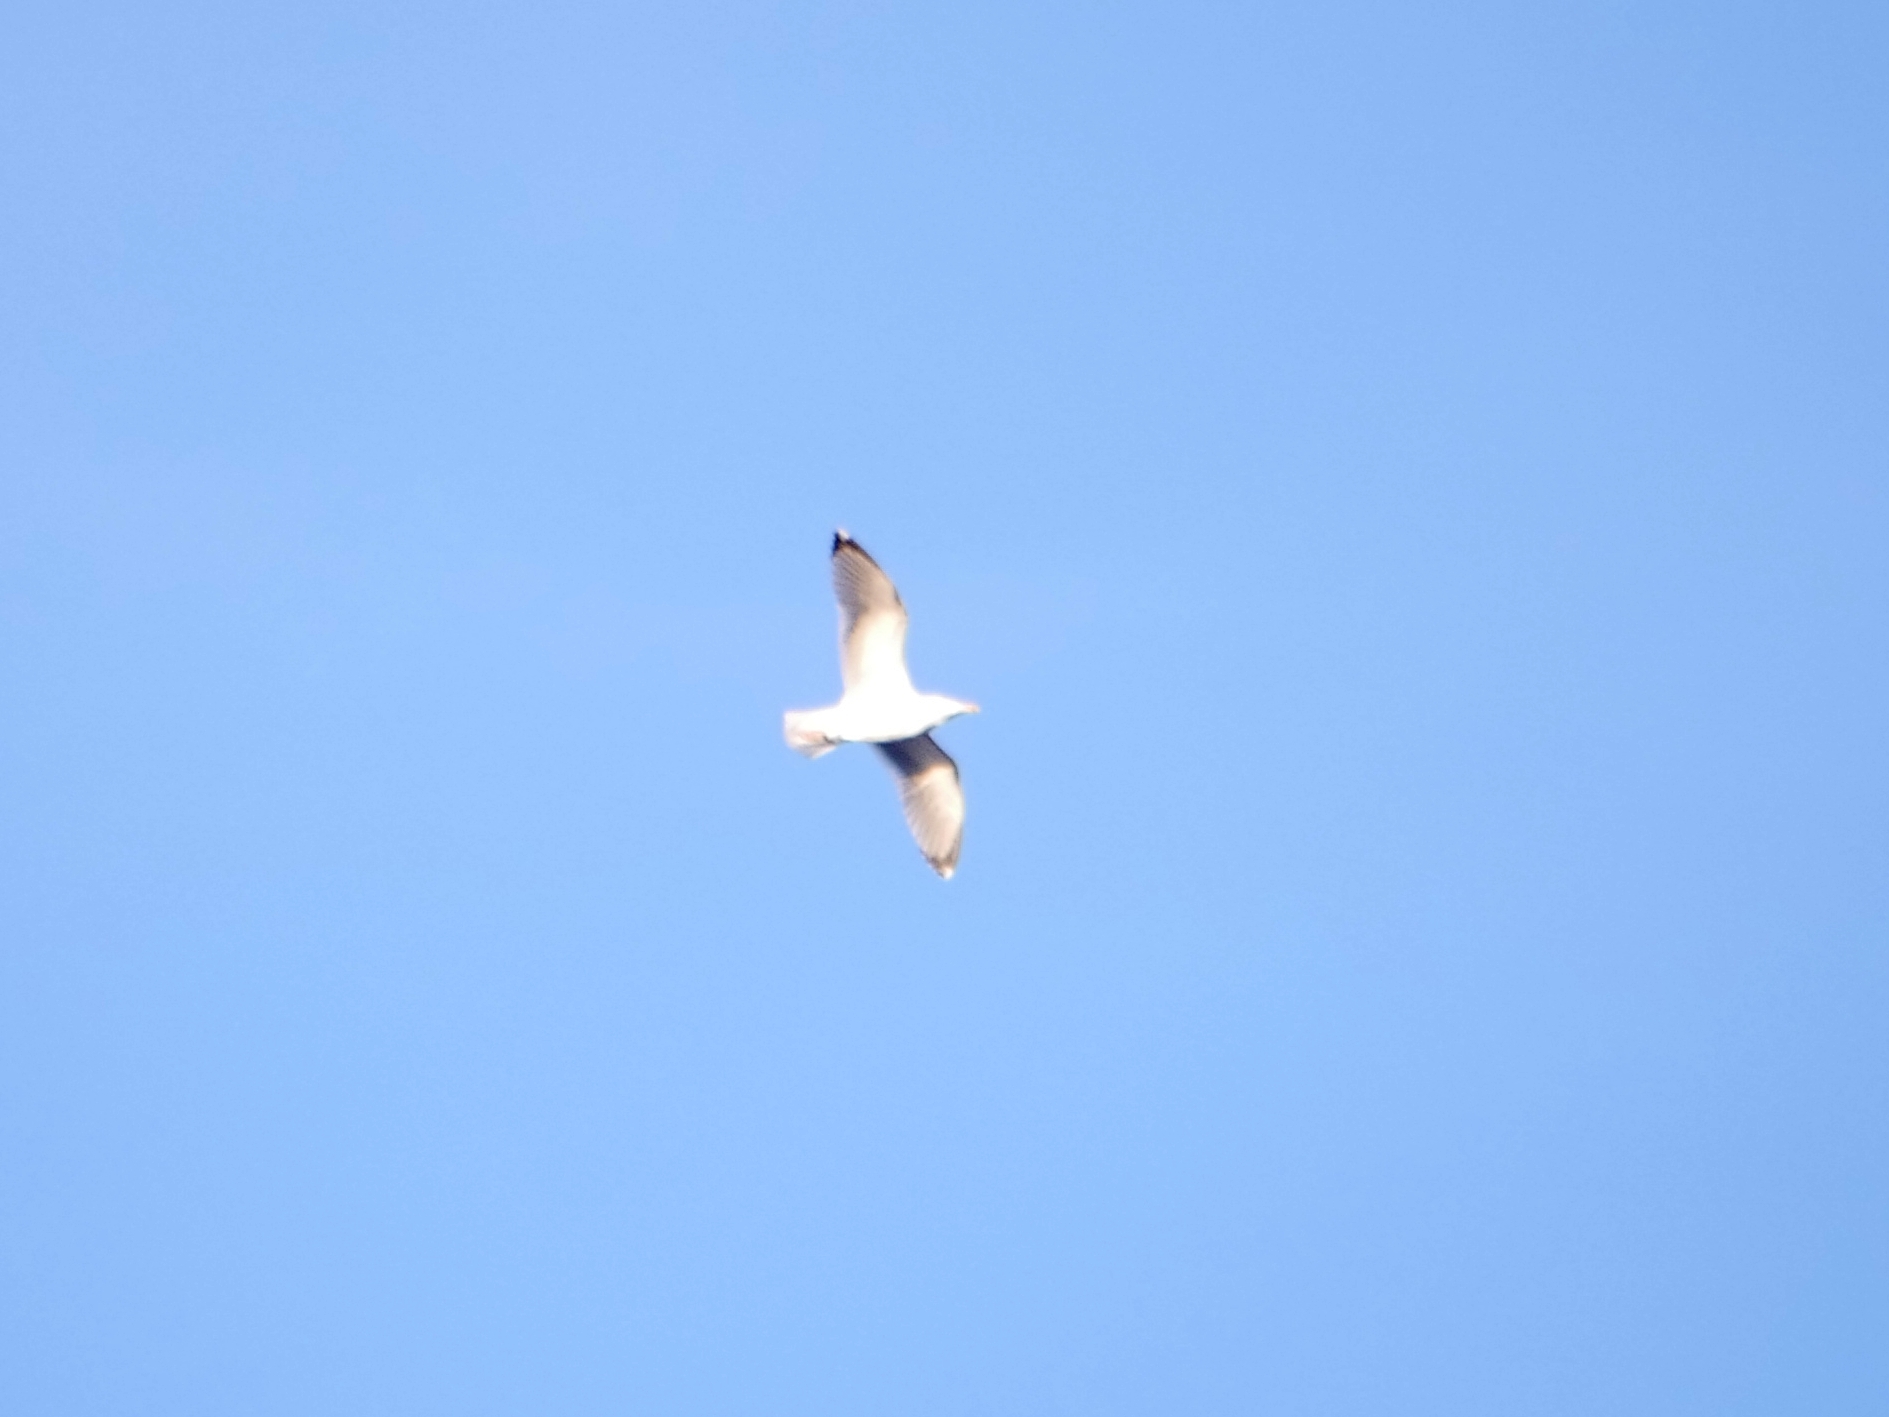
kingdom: Animalia
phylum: Chordata
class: Aves
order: Charadriiformes
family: Laridae
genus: Larus
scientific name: Larus argentatus
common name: Herring gull
